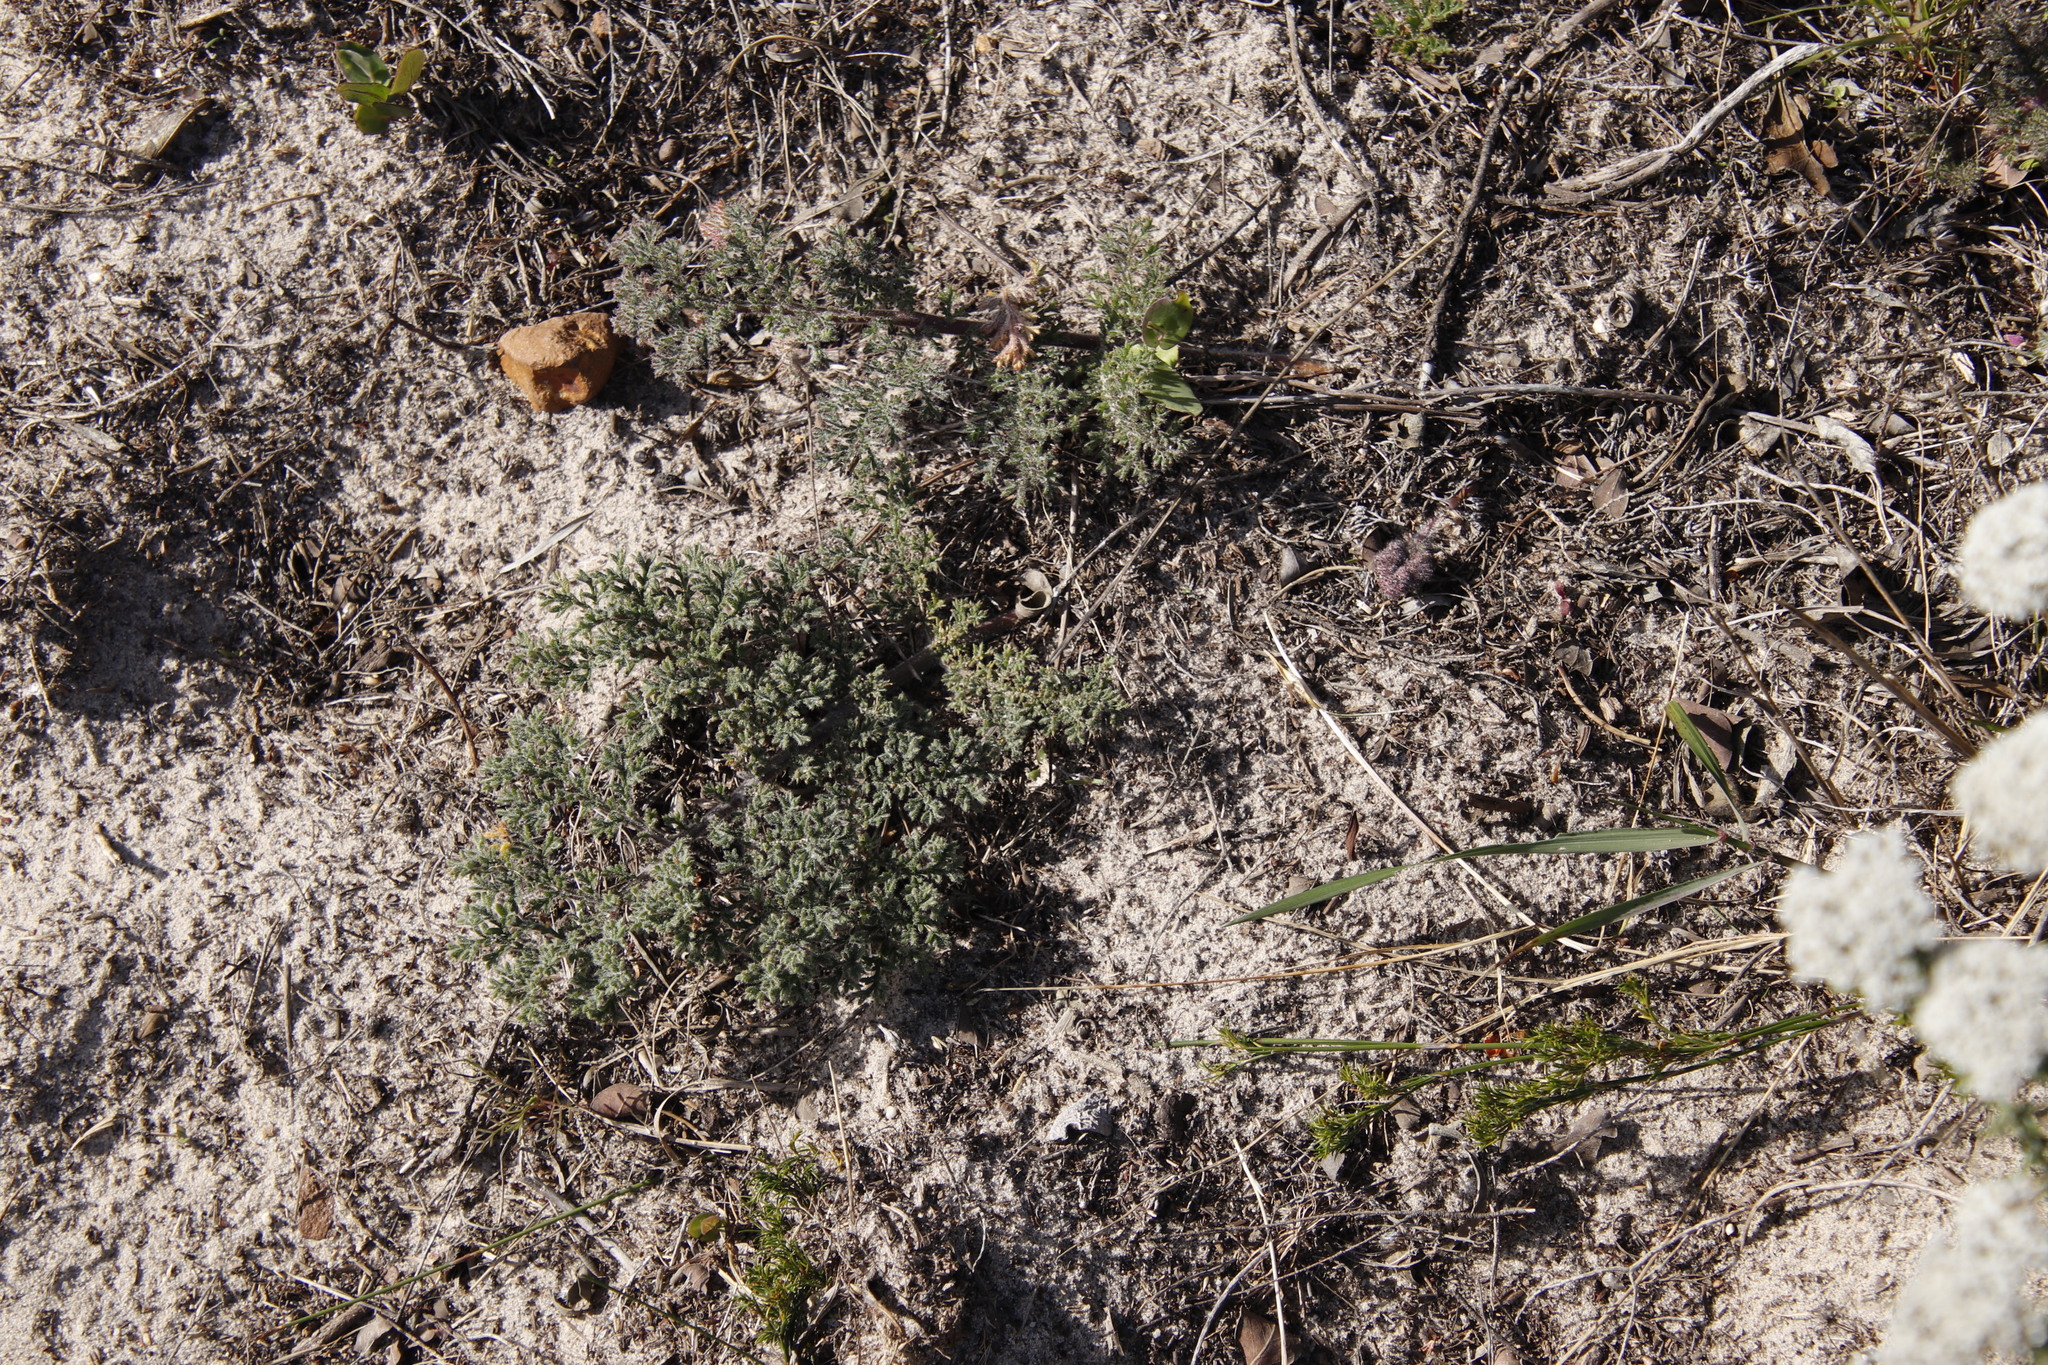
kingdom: Plantae
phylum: Tracheophyta
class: Magnoliopsida
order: Geraniales
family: Geraniaceae
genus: Pelargonium
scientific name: Pelargonium triste
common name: Night-scent pelargonium
